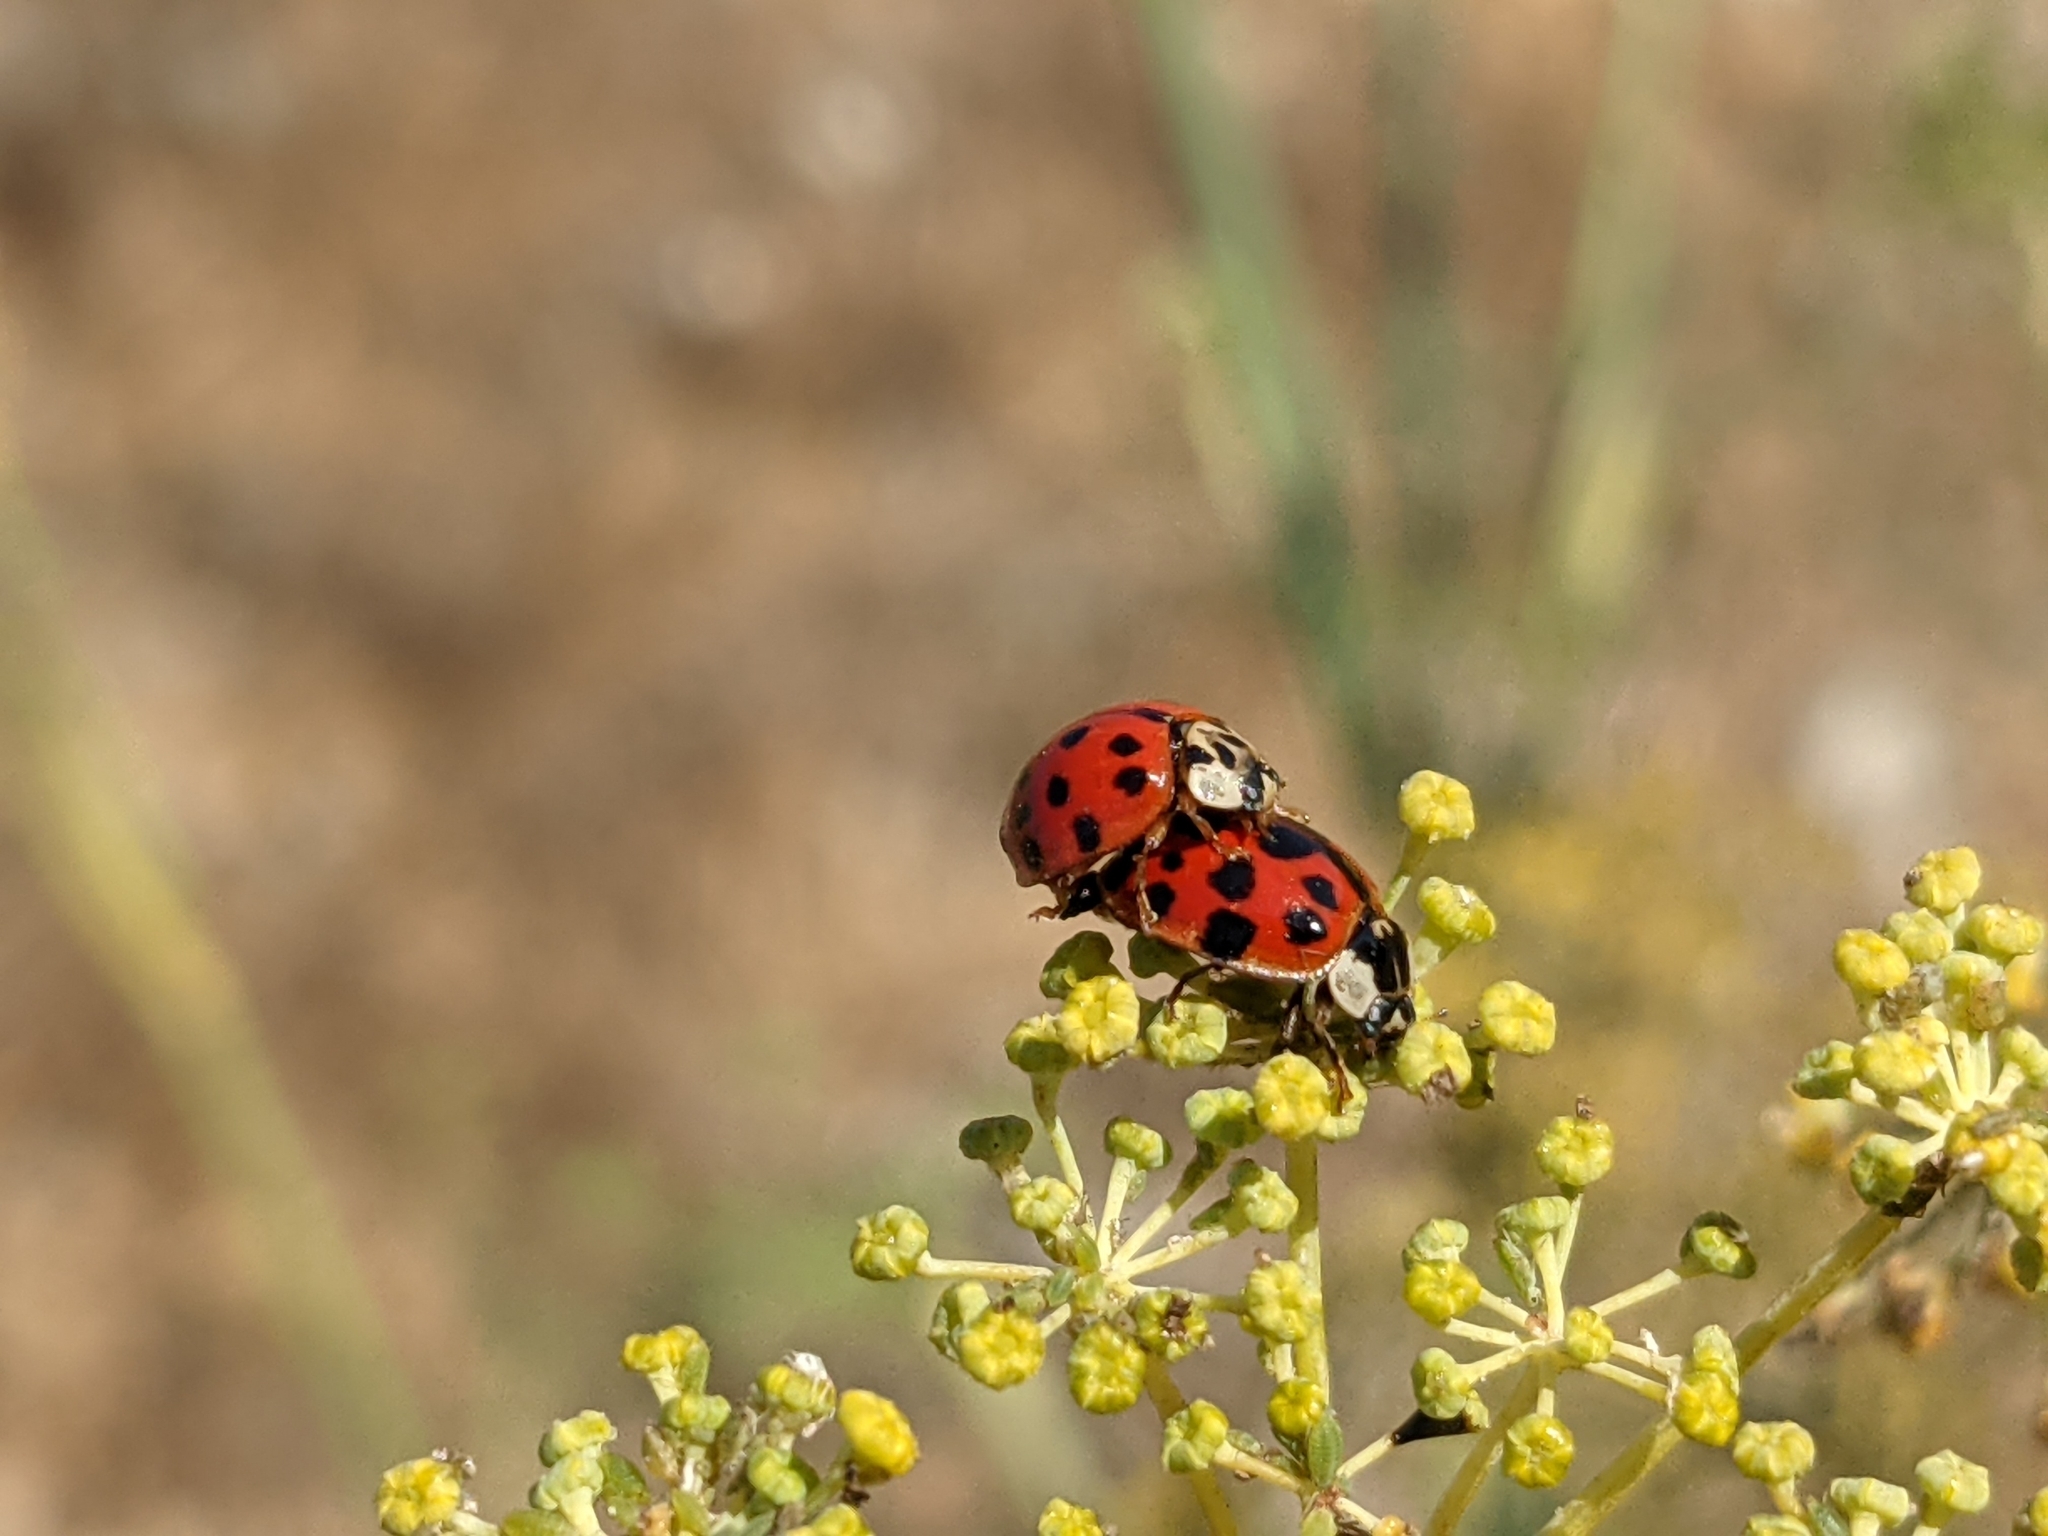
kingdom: Animalia
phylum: Arthropoda
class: Insecta
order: Coleoptera
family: Coccinellidae
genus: Harmonia
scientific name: Harmonia axyridis
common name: Harlequin ladybird
